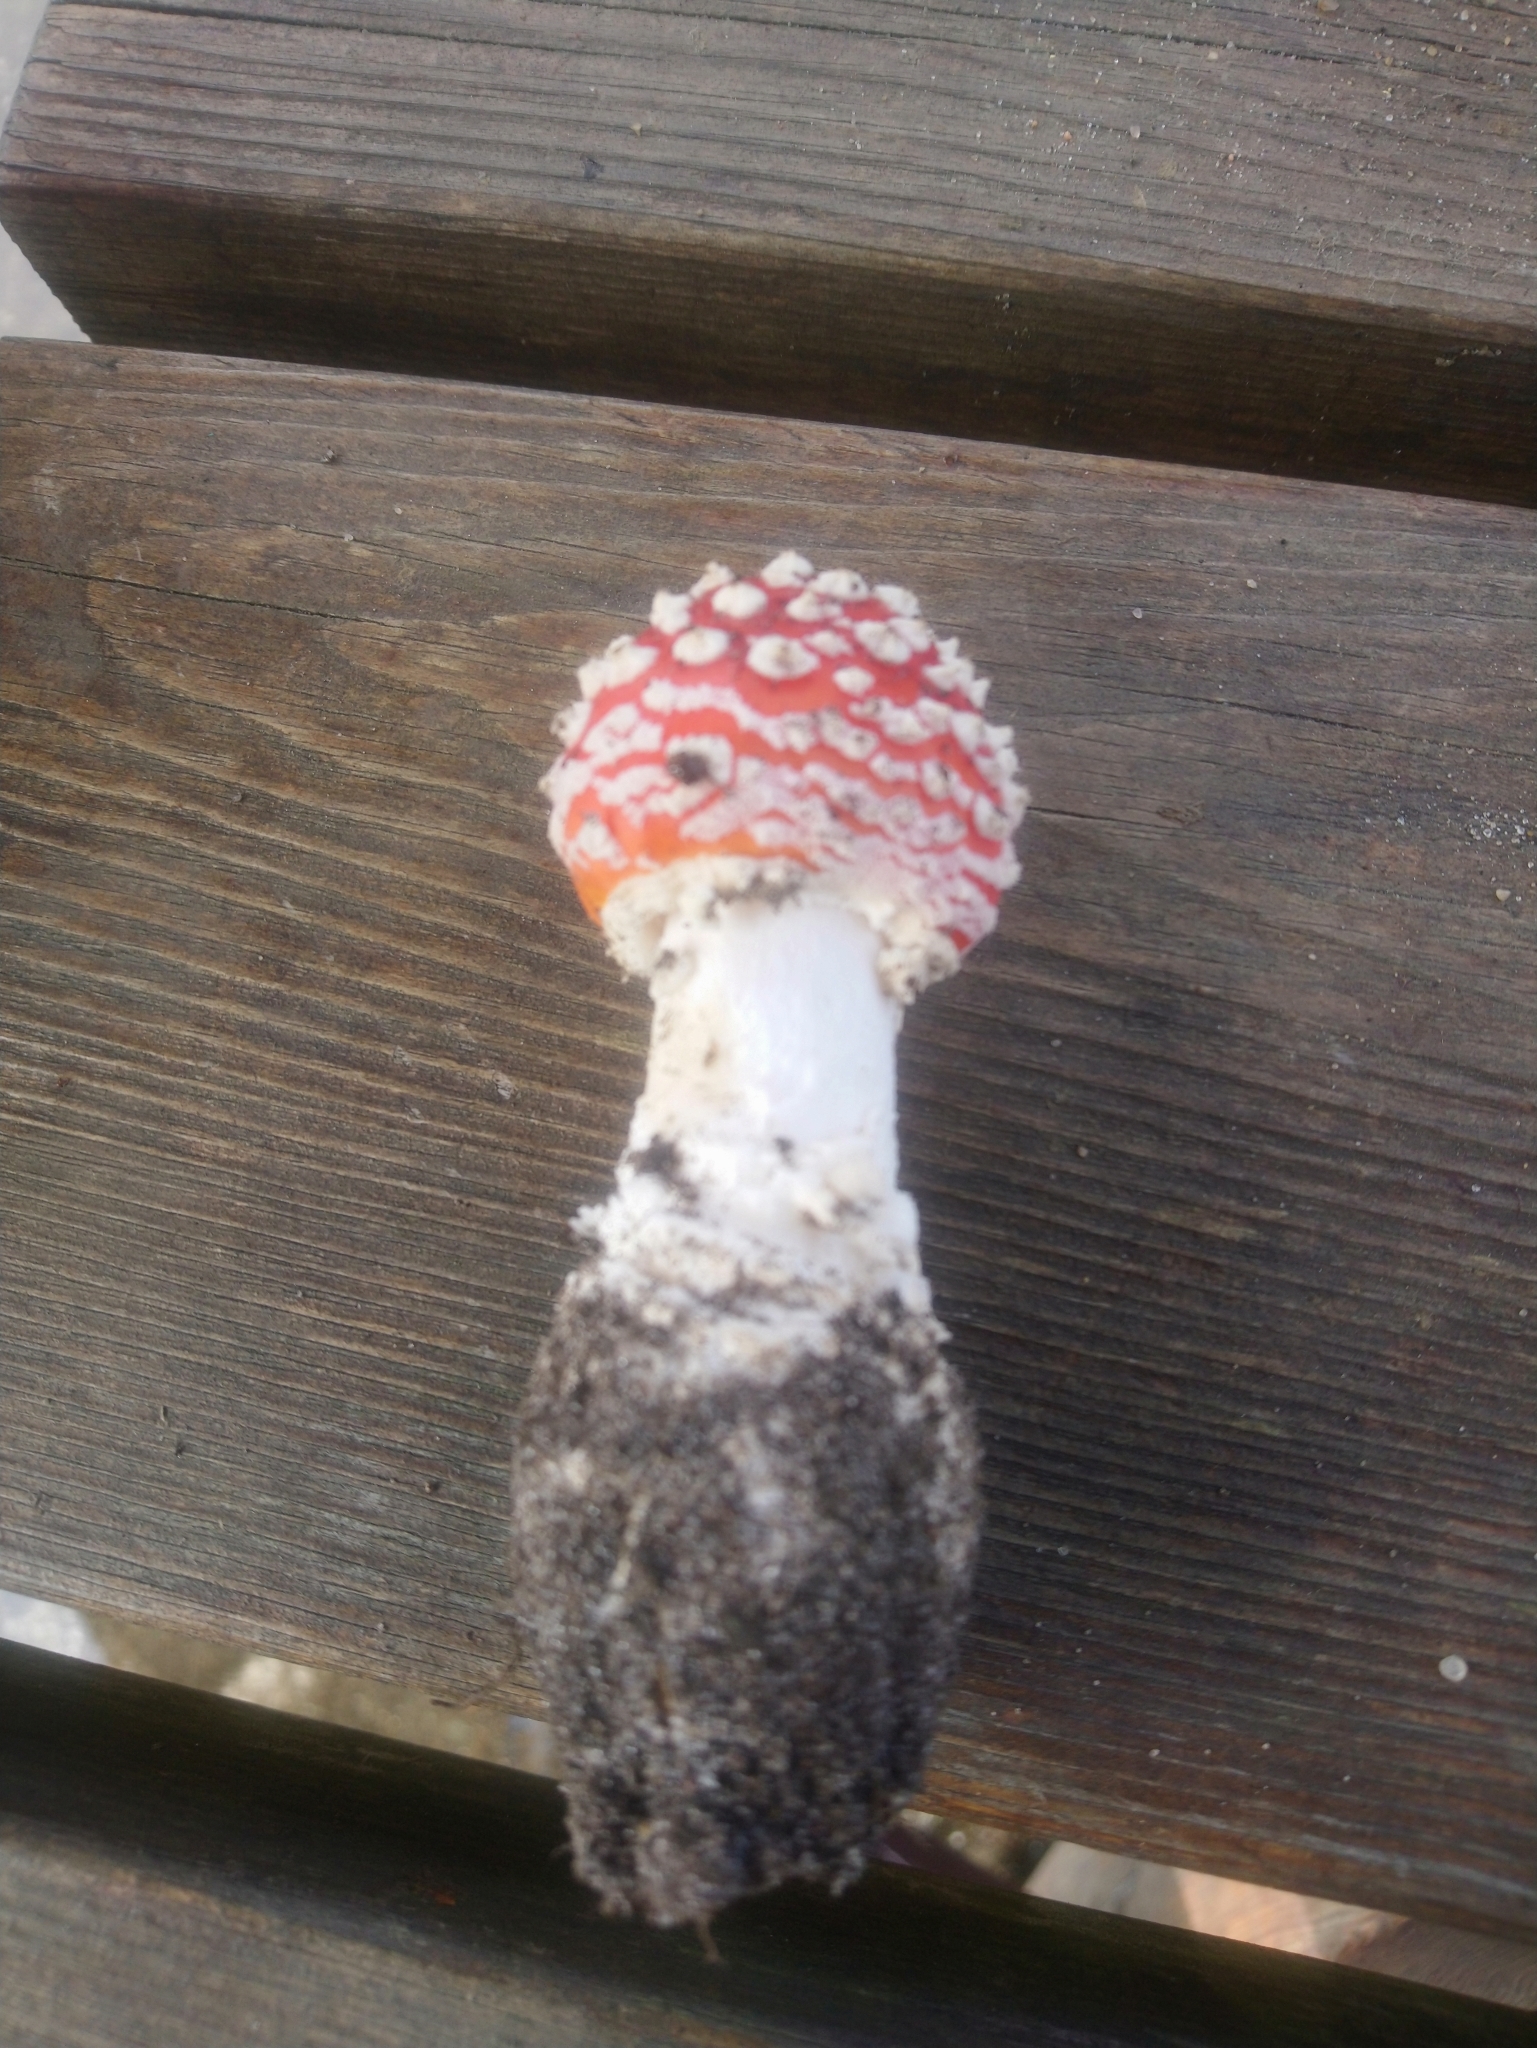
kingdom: Fungi
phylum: Basidiomycota
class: Agaricomycetes
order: Agaricales
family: Amanitaceae
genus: Amanita
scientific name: Amanita muscaria
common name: Fly agaric
